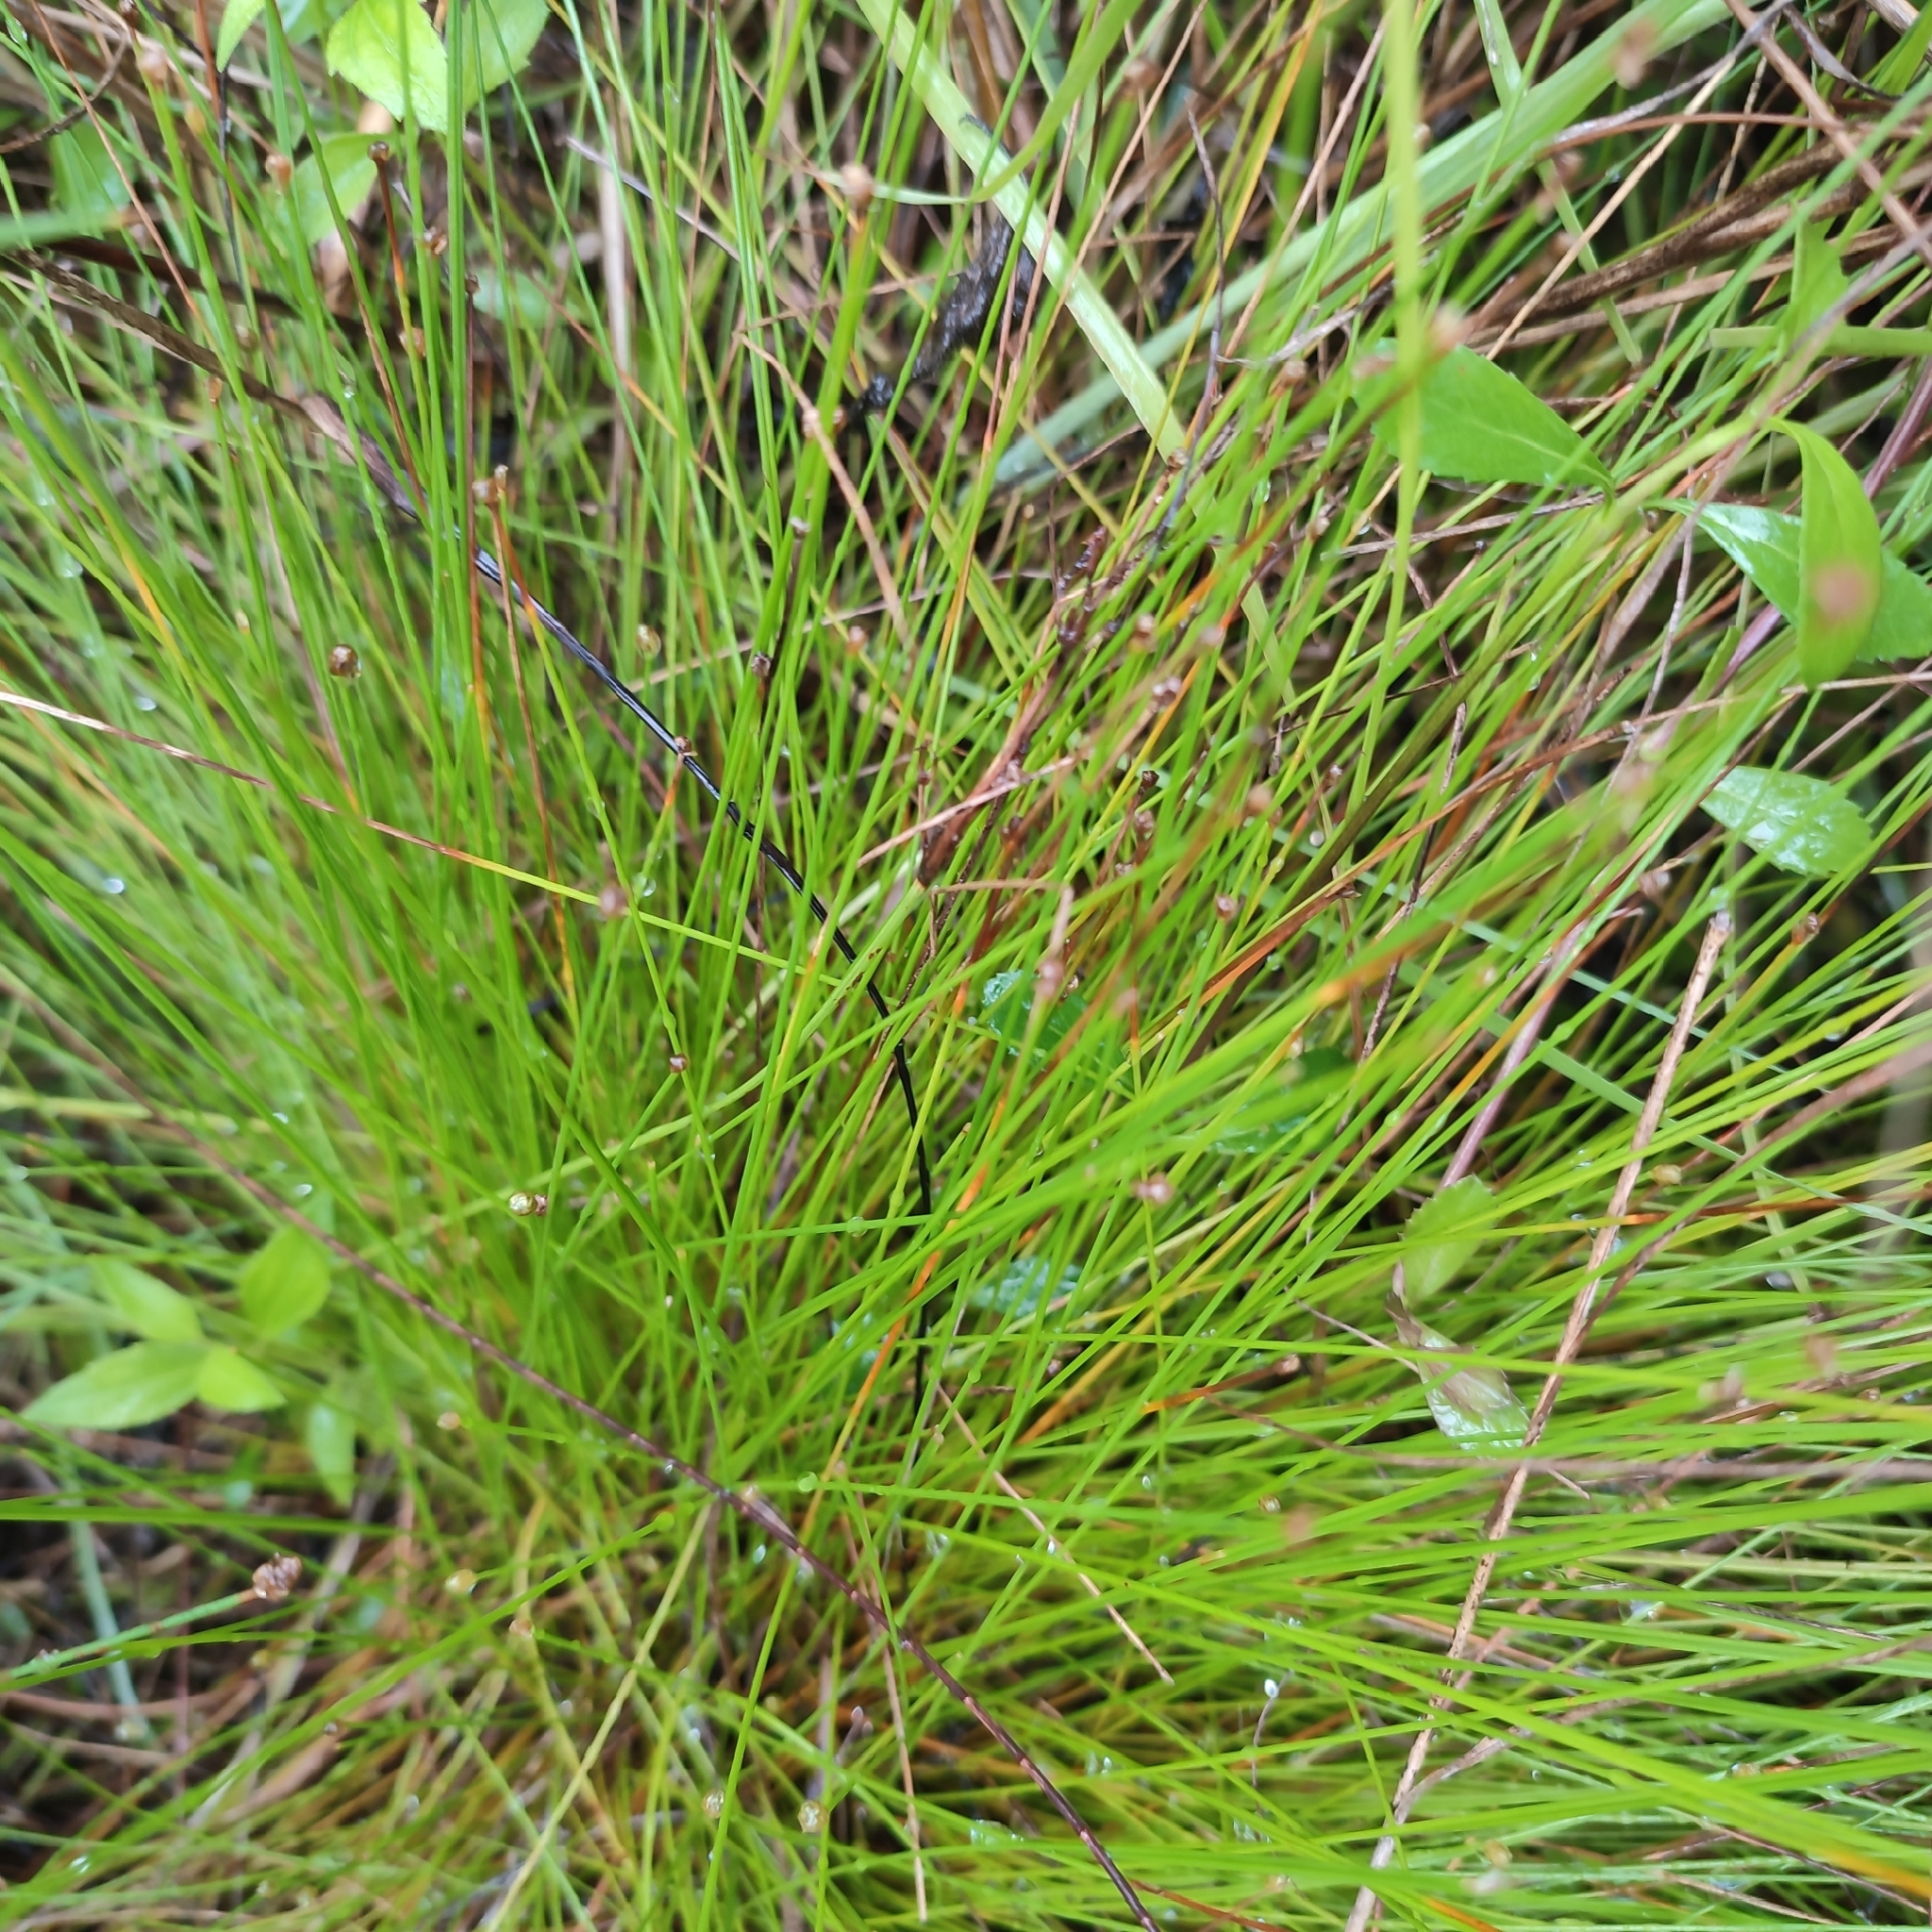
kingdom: Plantae
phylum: Tracheophyta
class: Liliopsida
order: Poales
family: Cyperaceae
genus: Eleocharis
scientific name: Eleocharis geniculata
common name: Canada spikesedge
